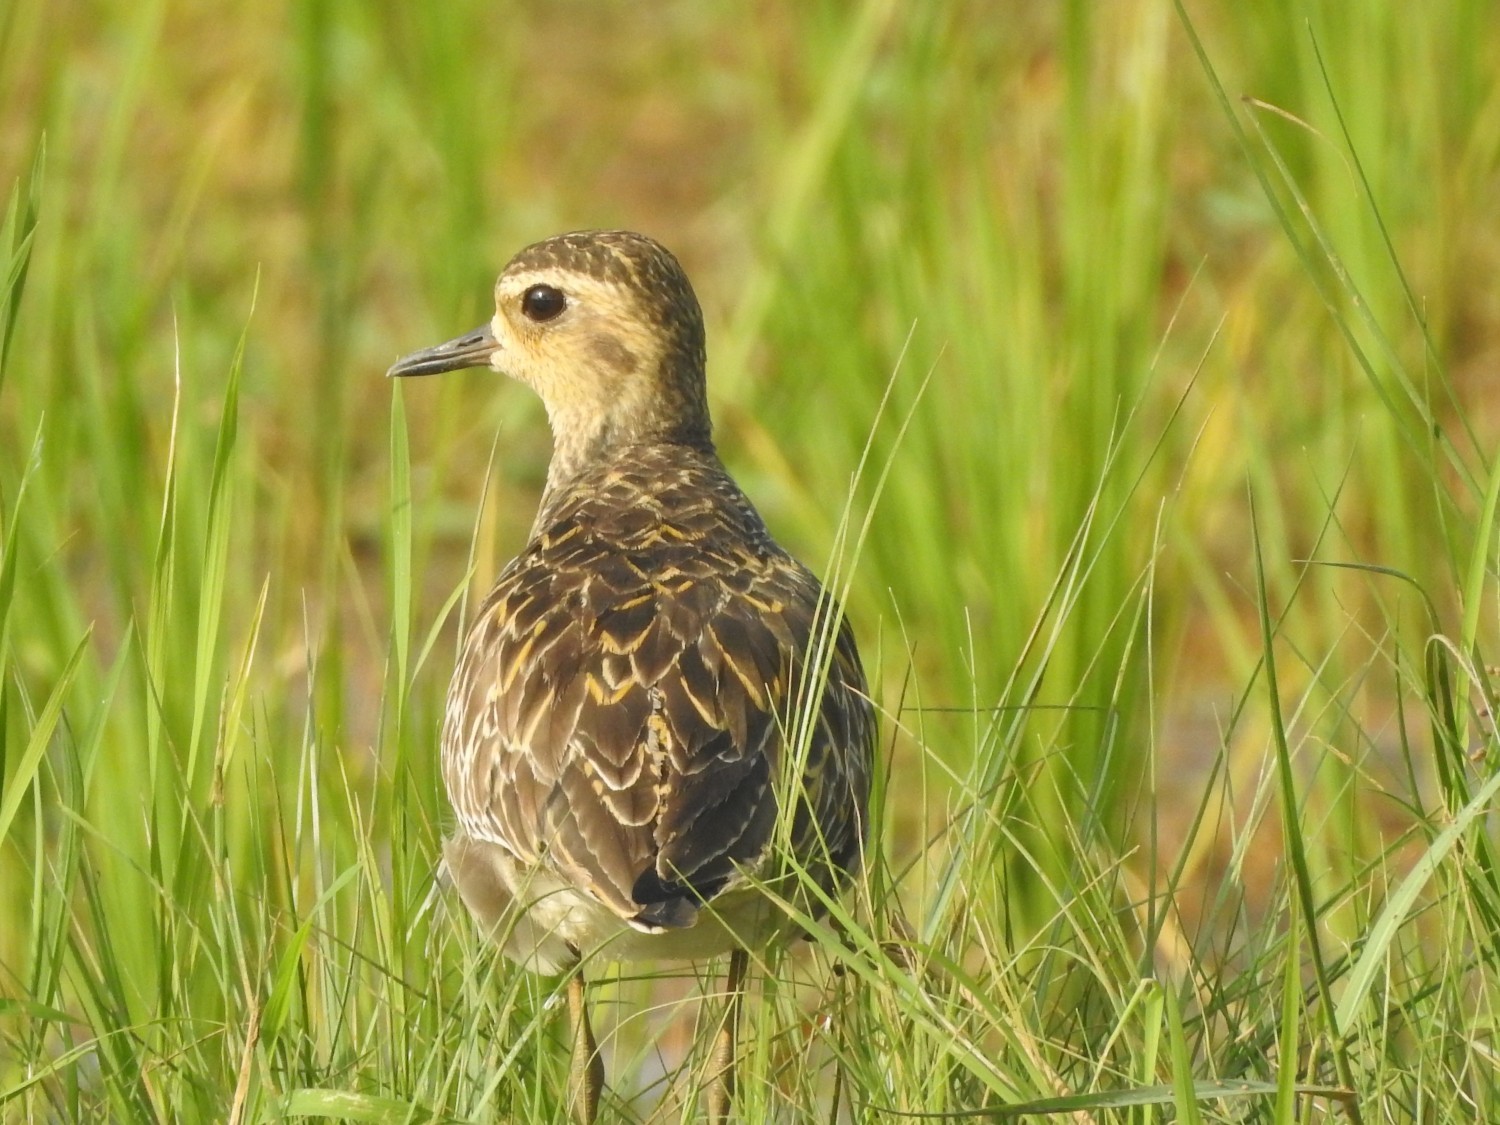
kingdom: Animalia
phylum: Chordata
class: Aves
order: Charadriiformes
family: Charadriidae
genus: Pluvialis
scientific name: Pluvialis fulva
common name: Pacific golden plover
